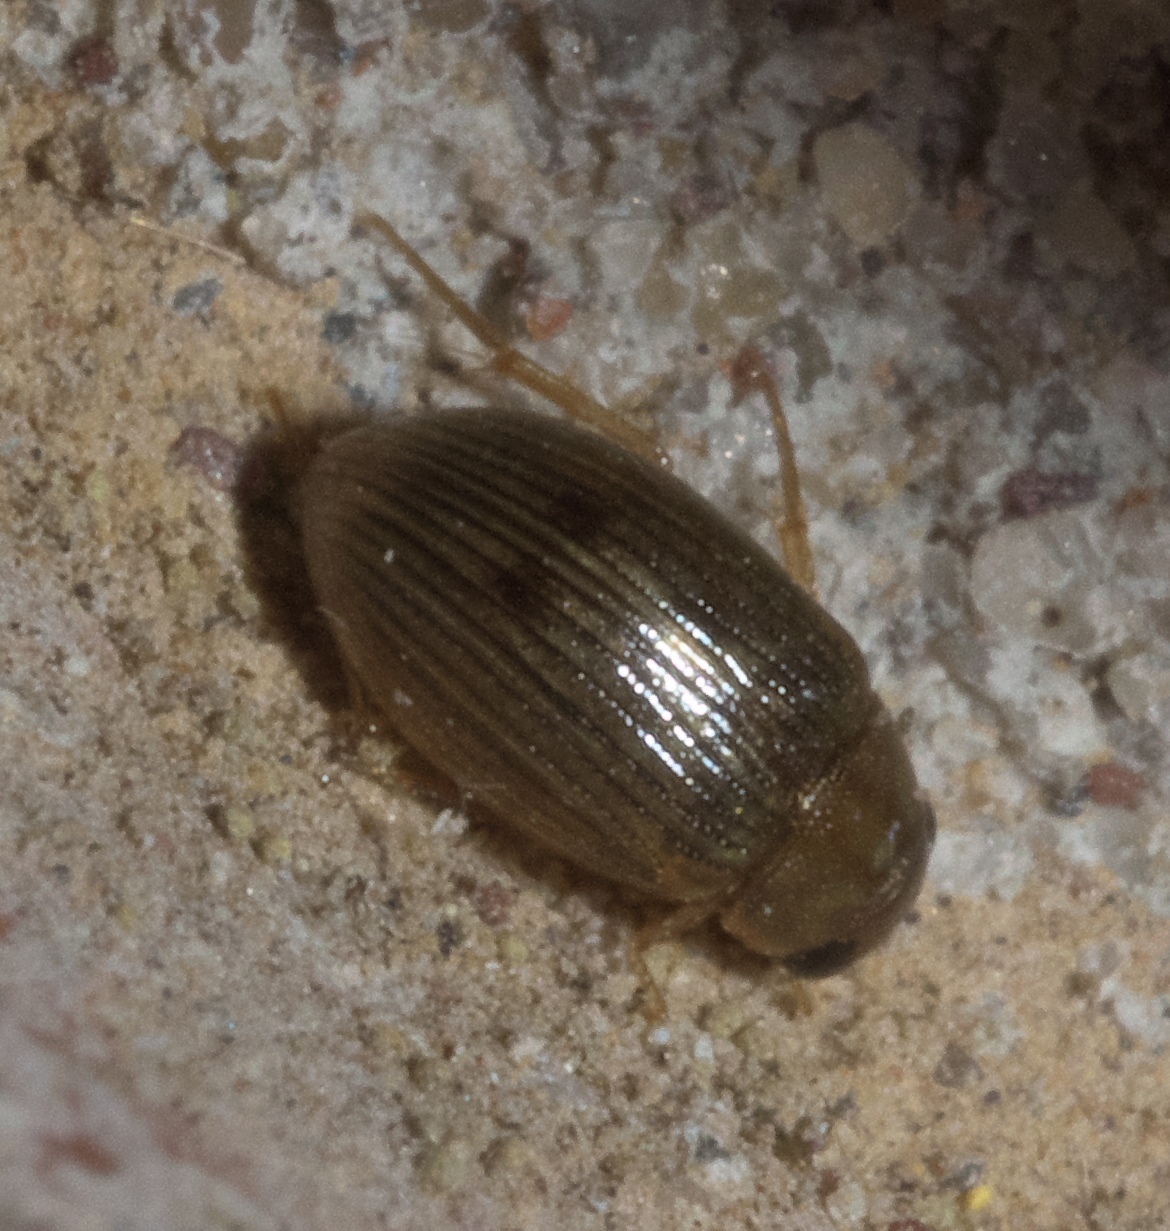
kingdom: Animalia
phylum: Arthropoda
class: Insecta
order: Coleoptera
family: Hydrophilidae
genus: Berosus
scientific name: Berosus exiguus
